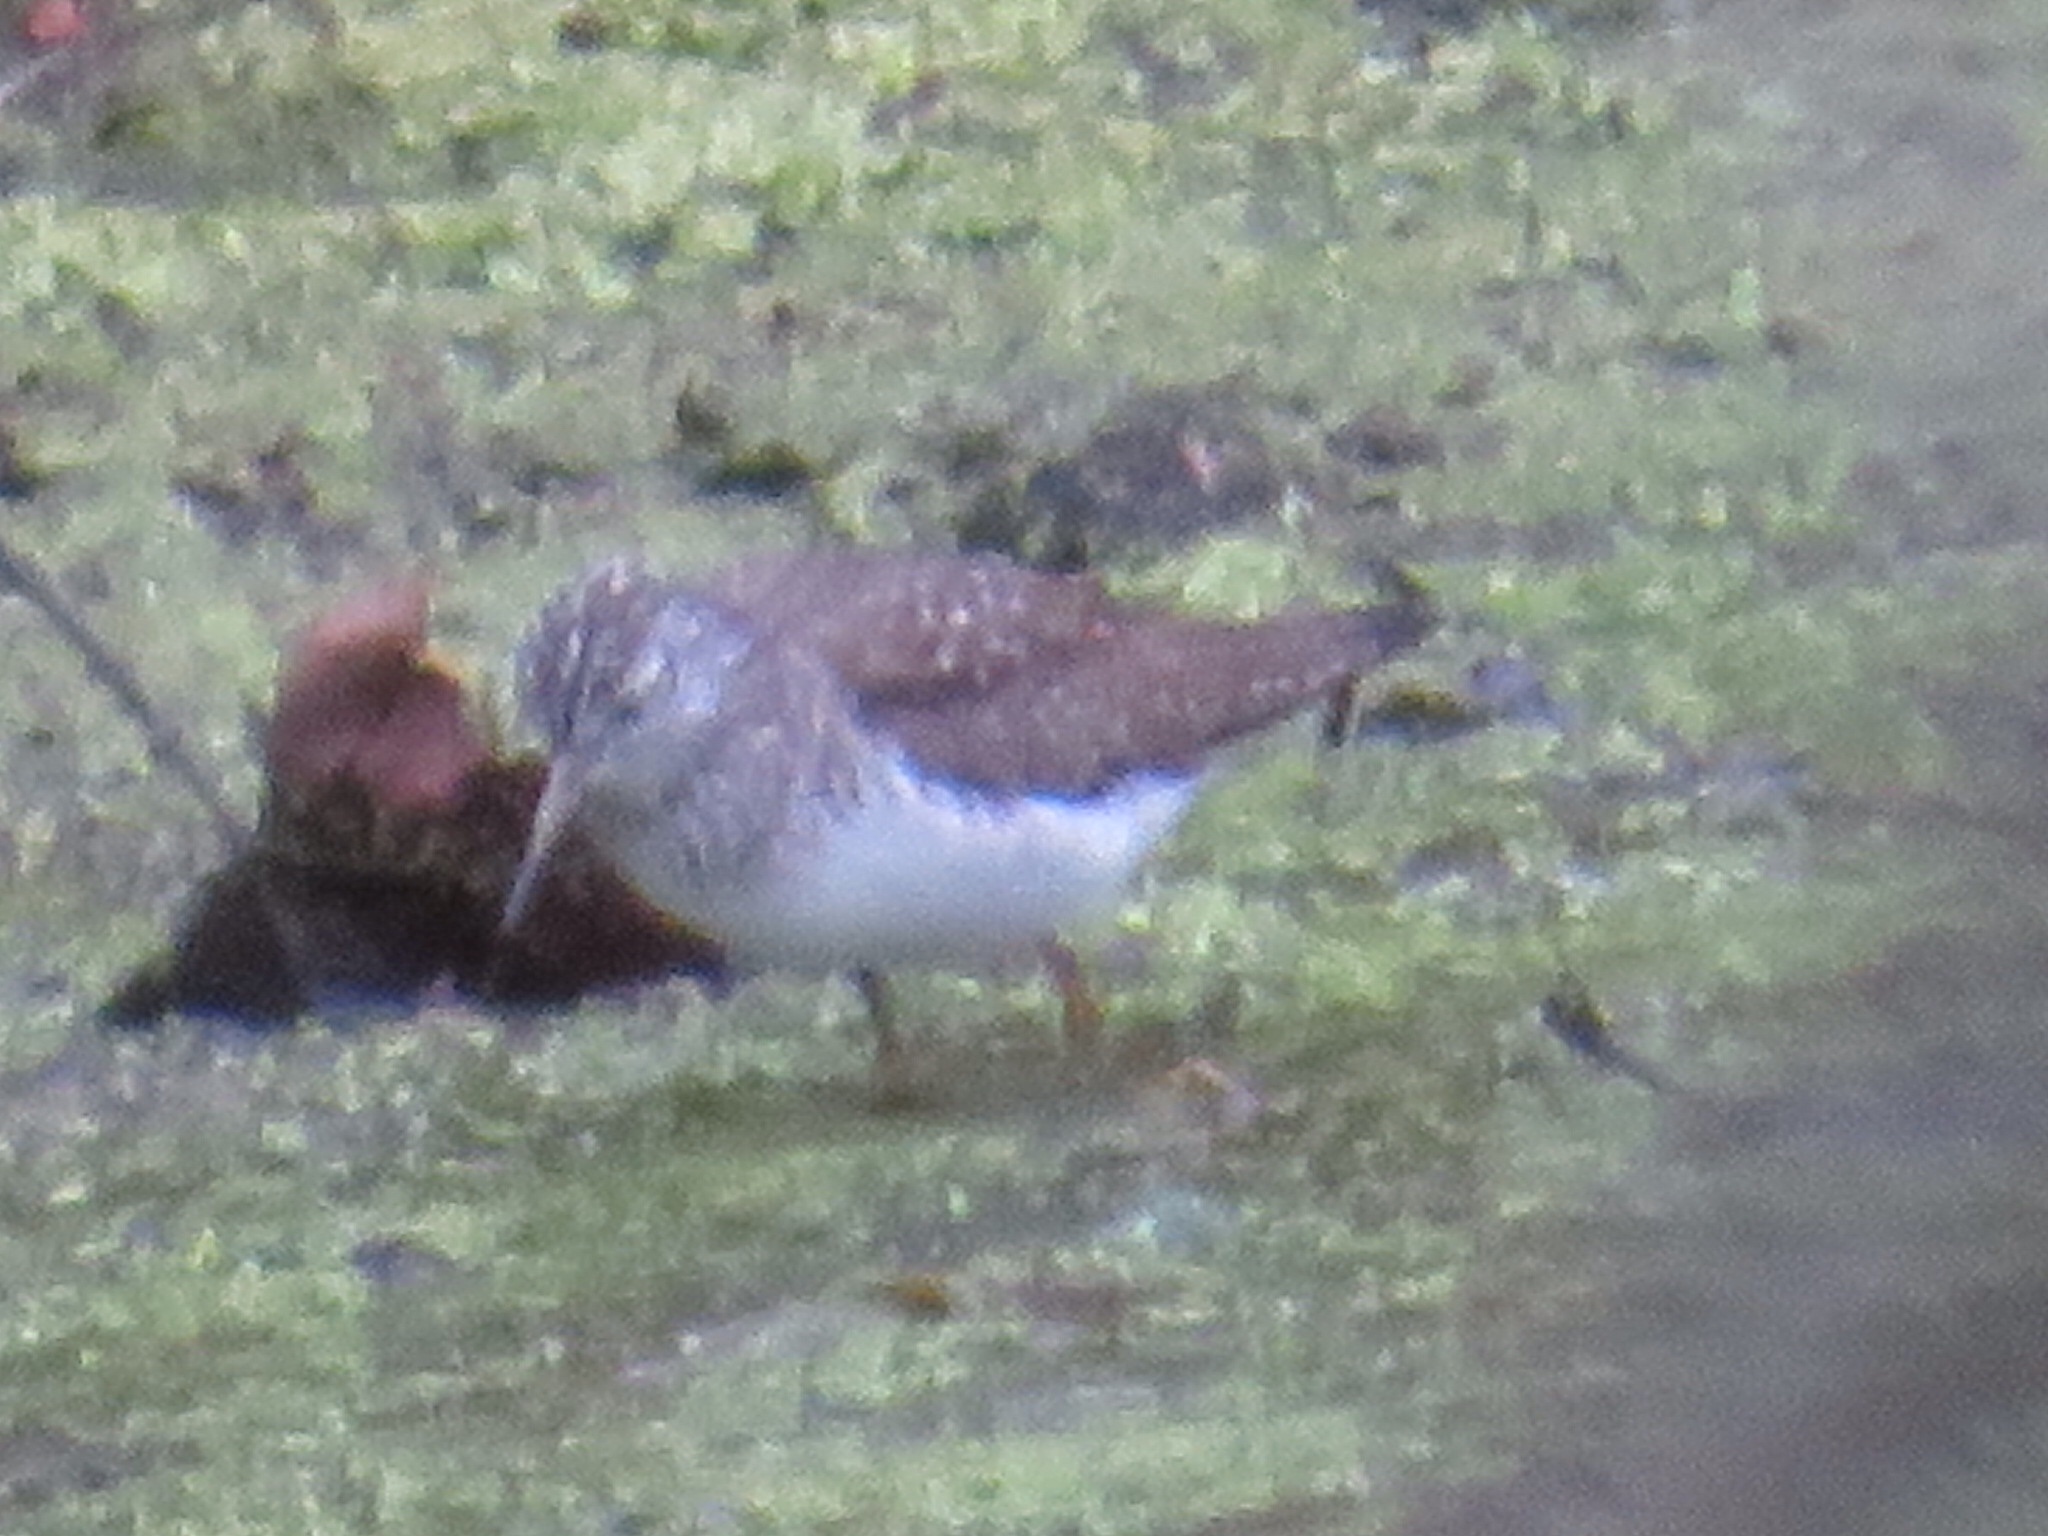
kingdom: Animalia
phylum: Chordata
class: Aves
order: Charadriiformes
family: Scolopacidae
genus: Tringa
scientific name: Tringa solitaria
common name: Solitary sandpiper
